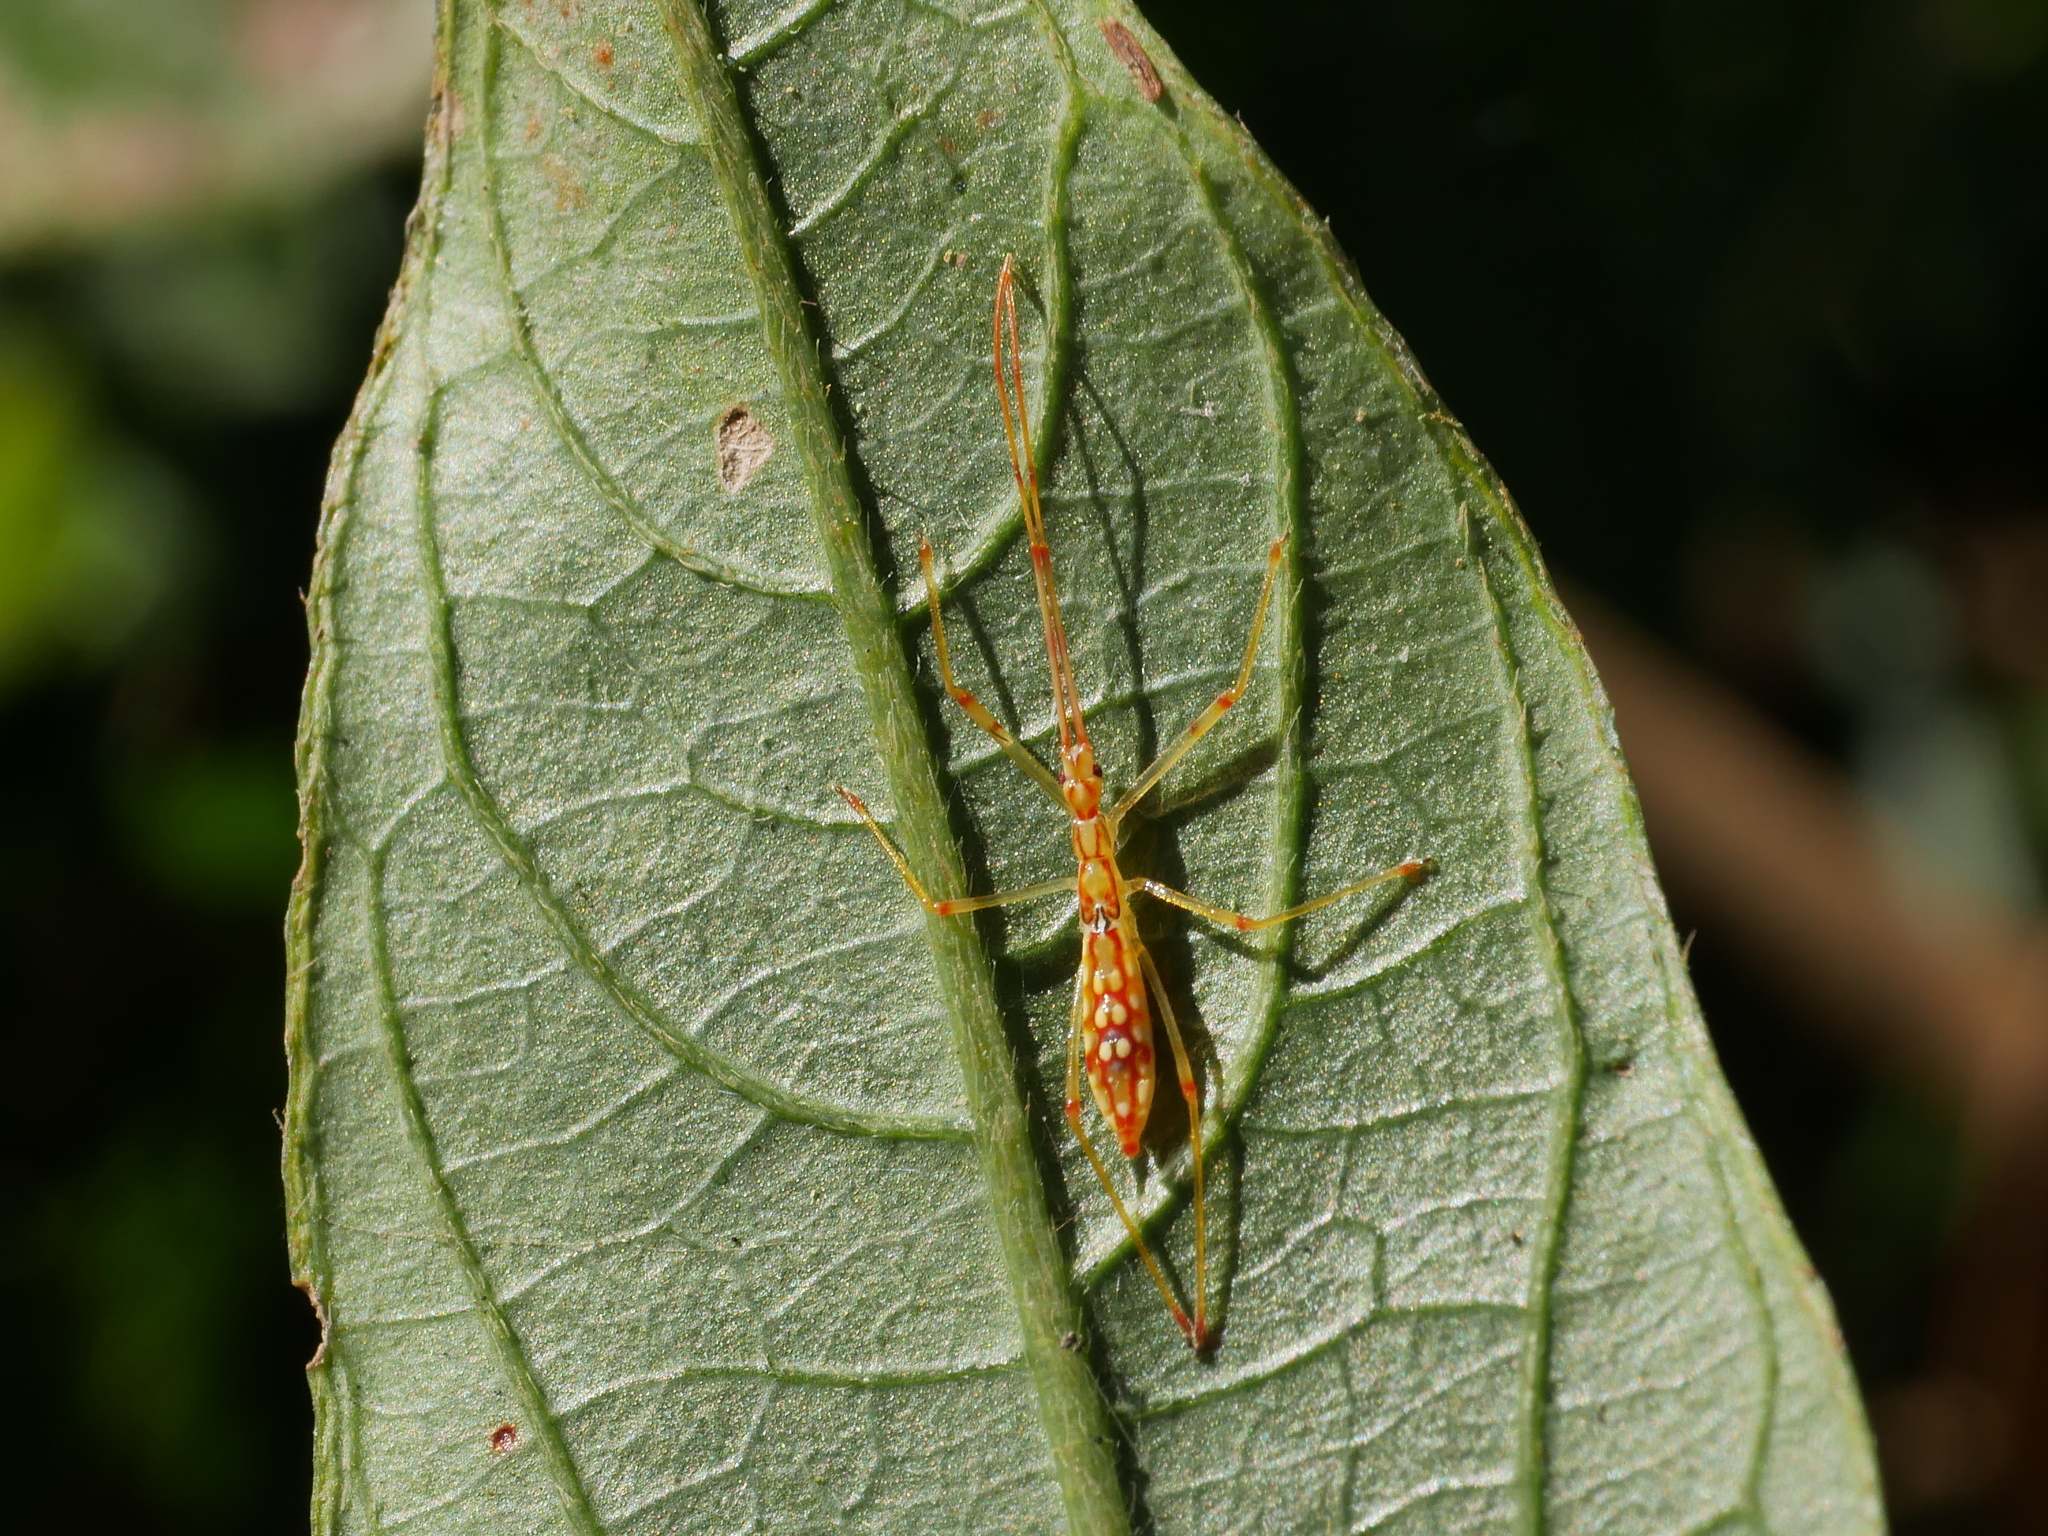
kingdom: Animalia
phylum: Arthropoda
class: Insecta
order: Hemiptera
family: Reduviidae
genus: Serendiba
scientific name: Serendiba staliana
